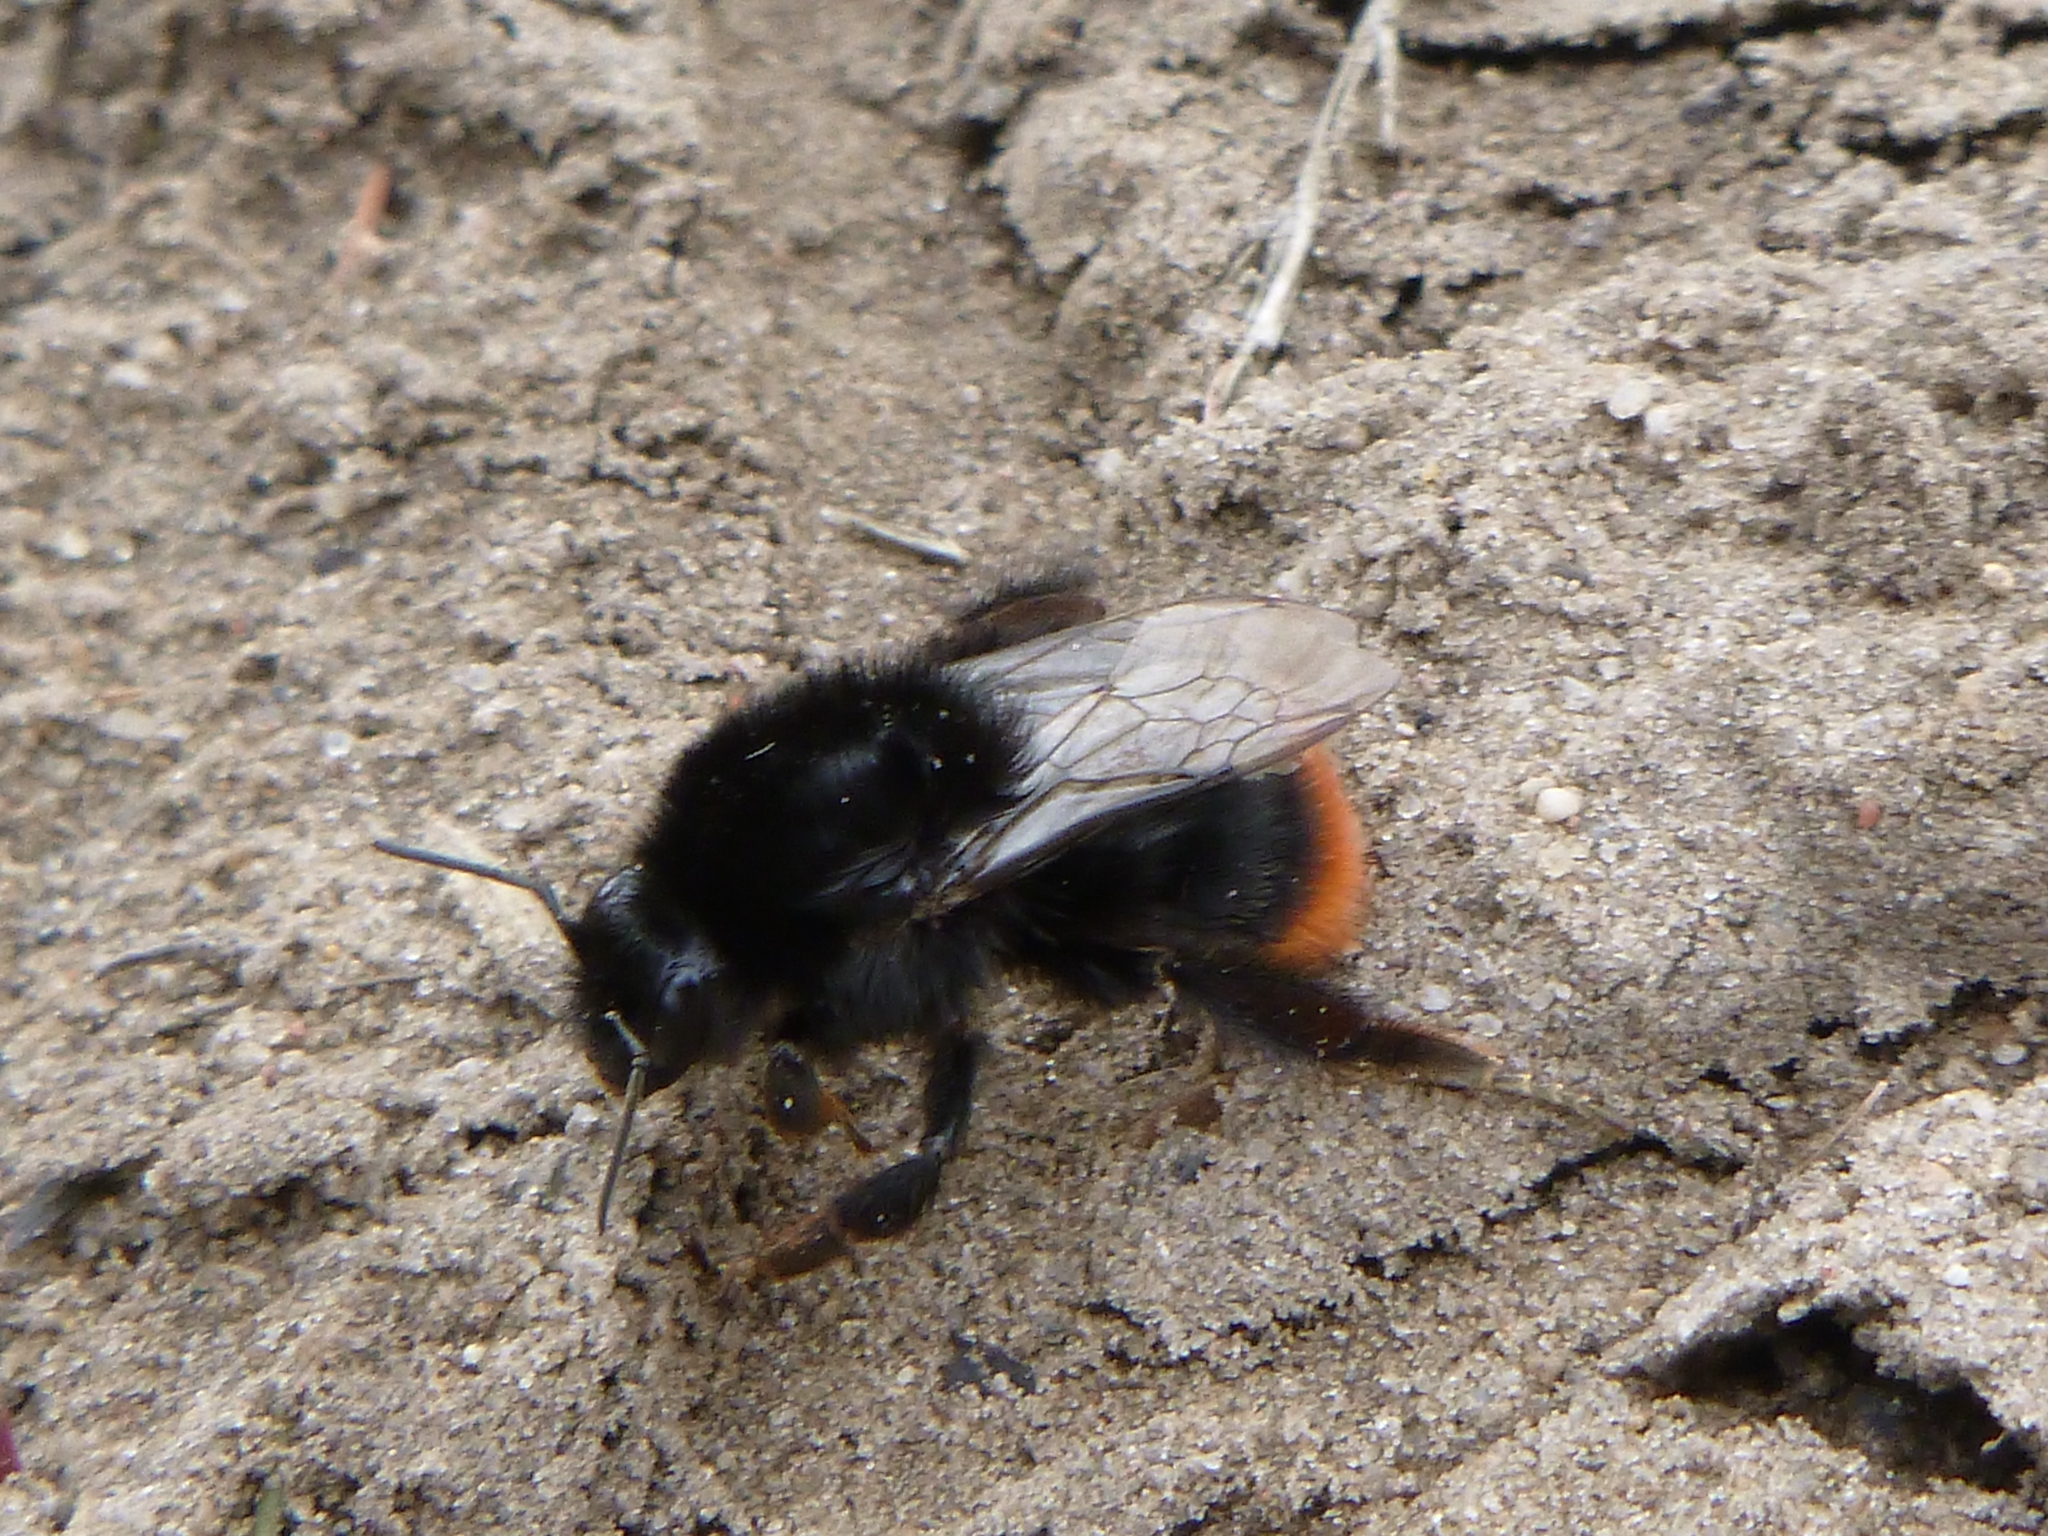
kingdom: Animalia
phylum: Arthropoda
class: Insecta
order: Hymenoptera
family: Apidae
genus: Bombus
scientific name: Bombus lapidarius
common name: Large red-tailed humble-bee
